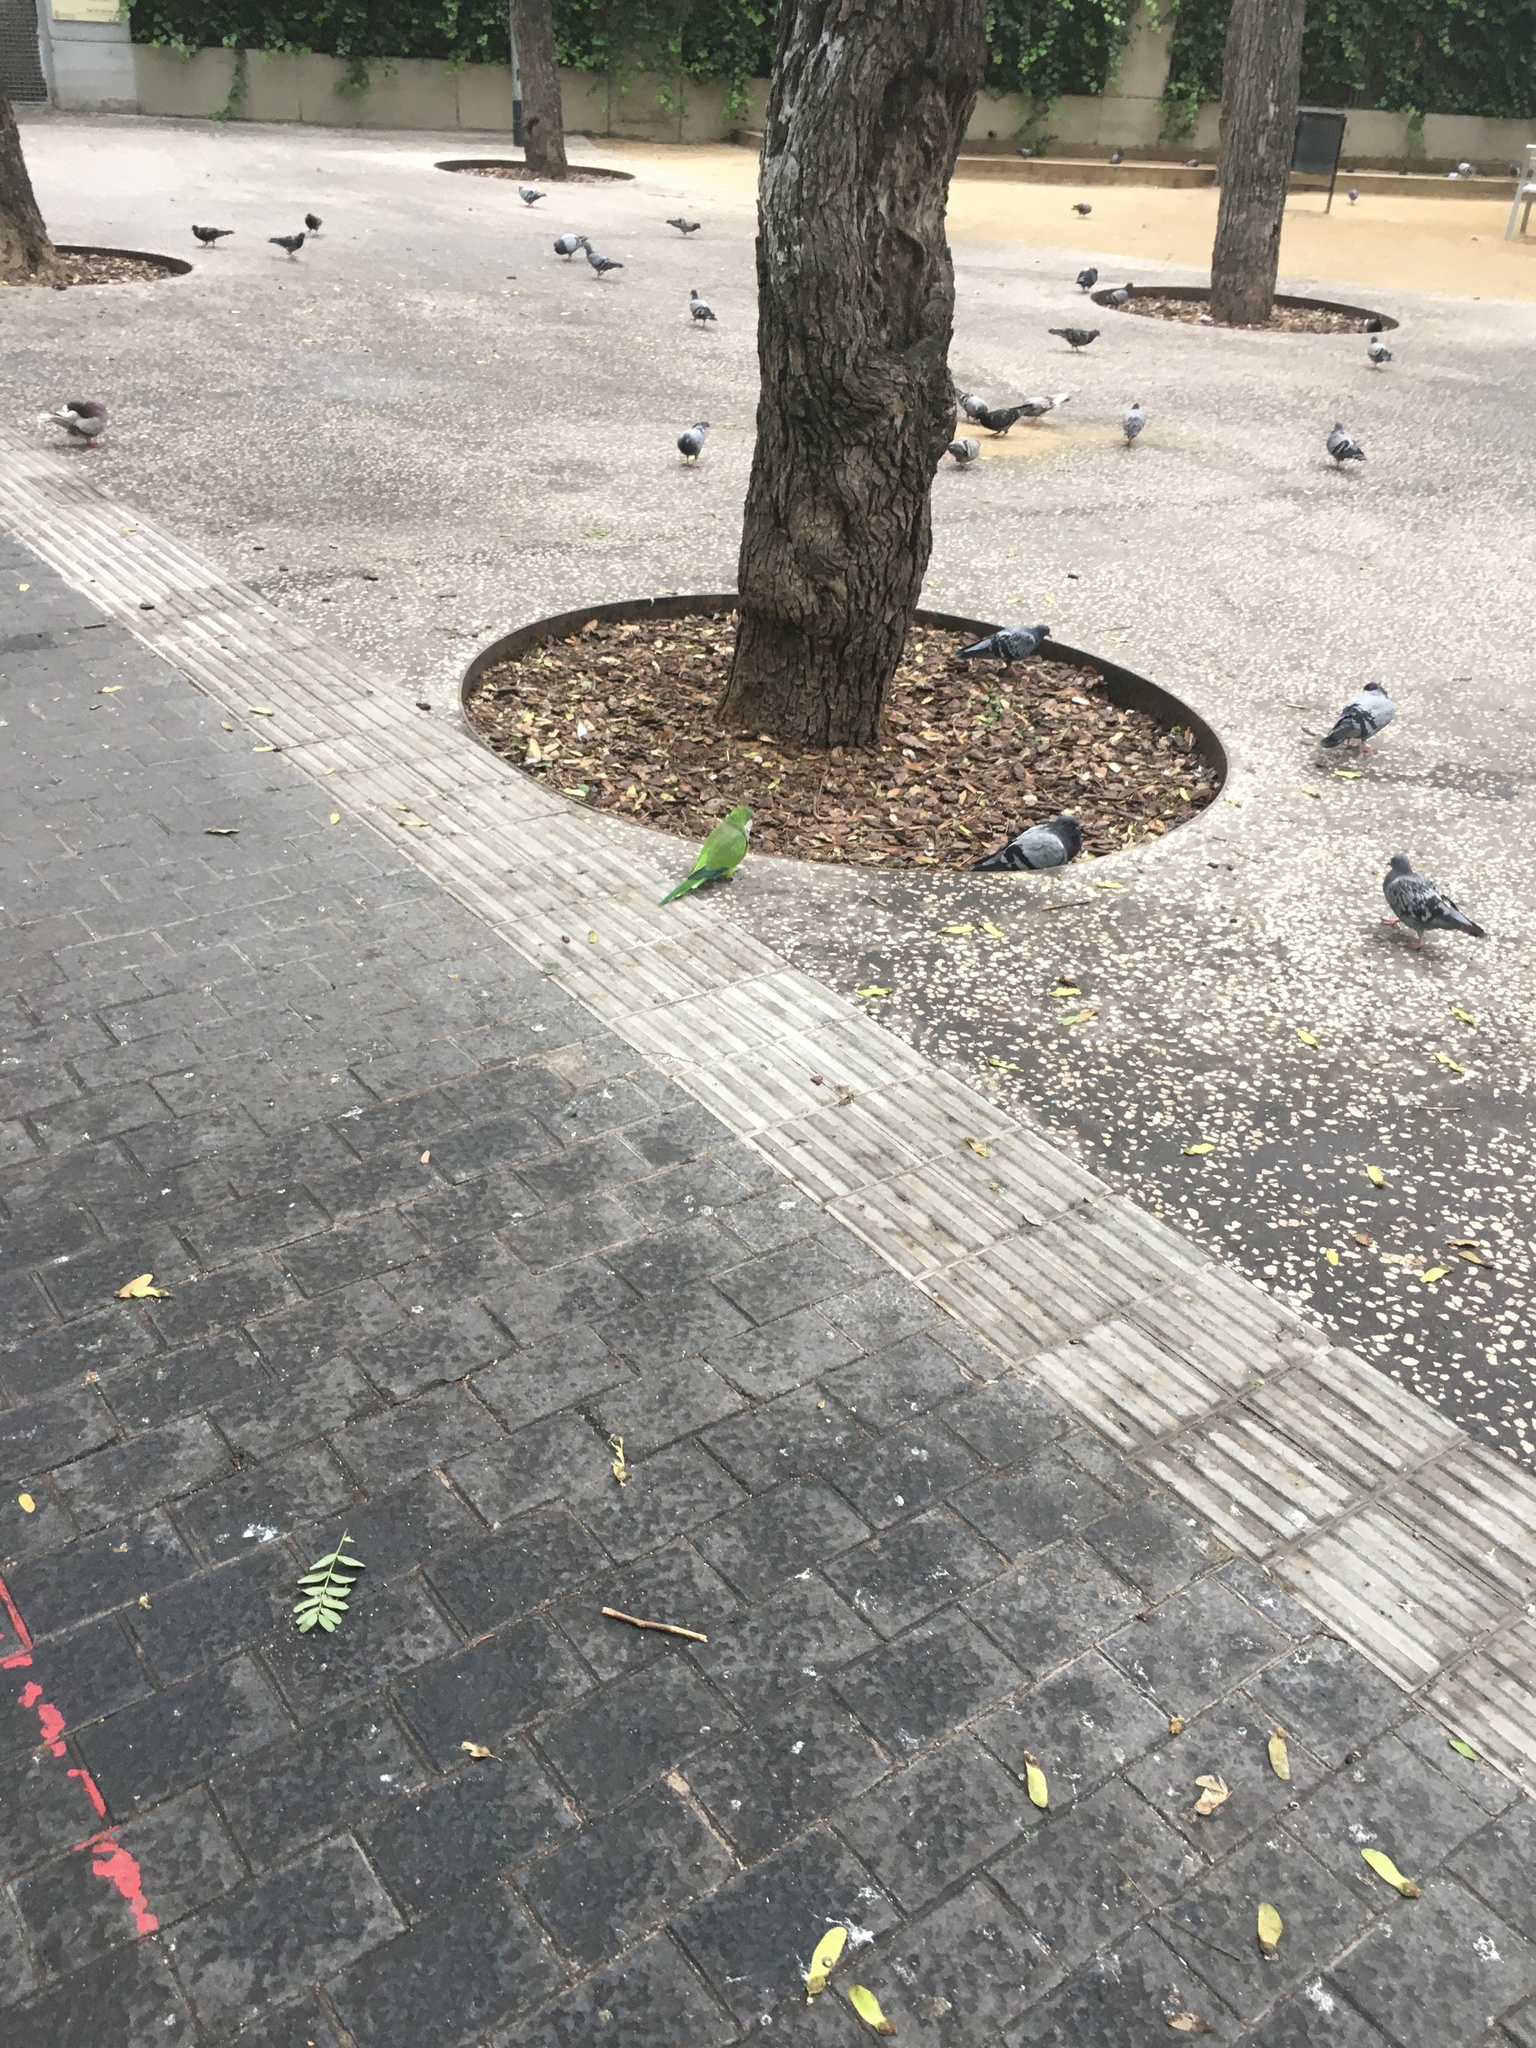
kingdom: Animalia
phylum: Chordata
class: Aves
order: Psittaciformes
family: Psittacidae
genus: Myiopsitta
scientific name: Myiopsitta monachus
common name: Monk parakeet
